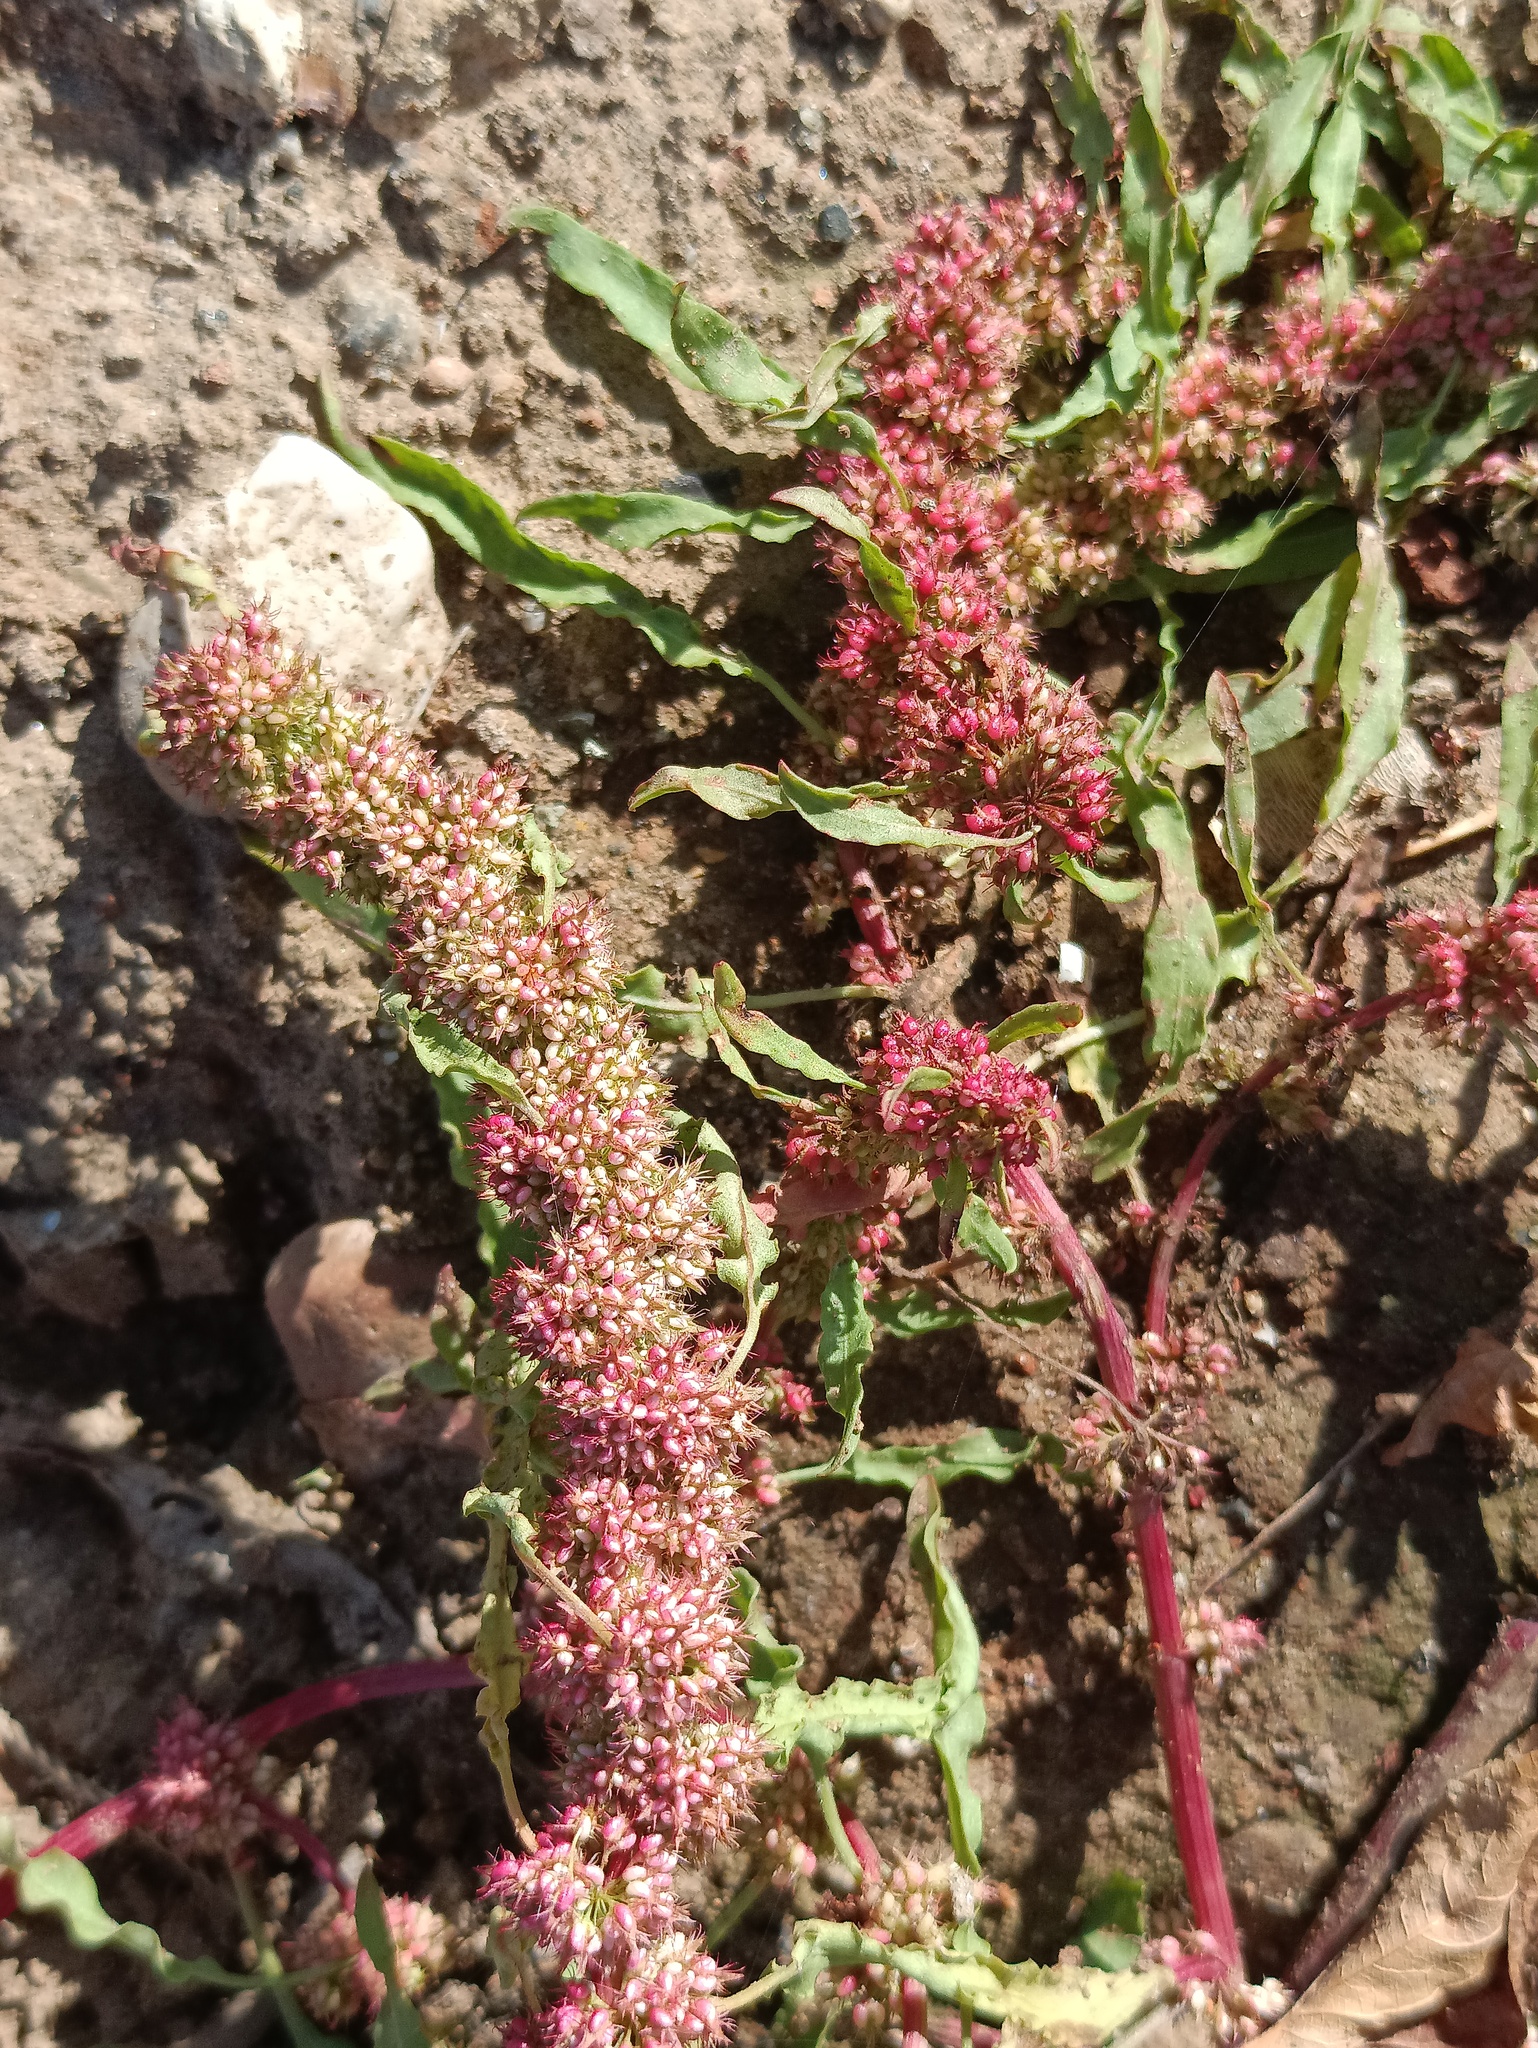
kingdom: Plantae
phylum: Tracheophyta
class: Magnoliopsida
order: Caryophyllales
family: Polygonaceae
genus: Rumex
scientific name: Rumex crispus
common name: Curled dock
